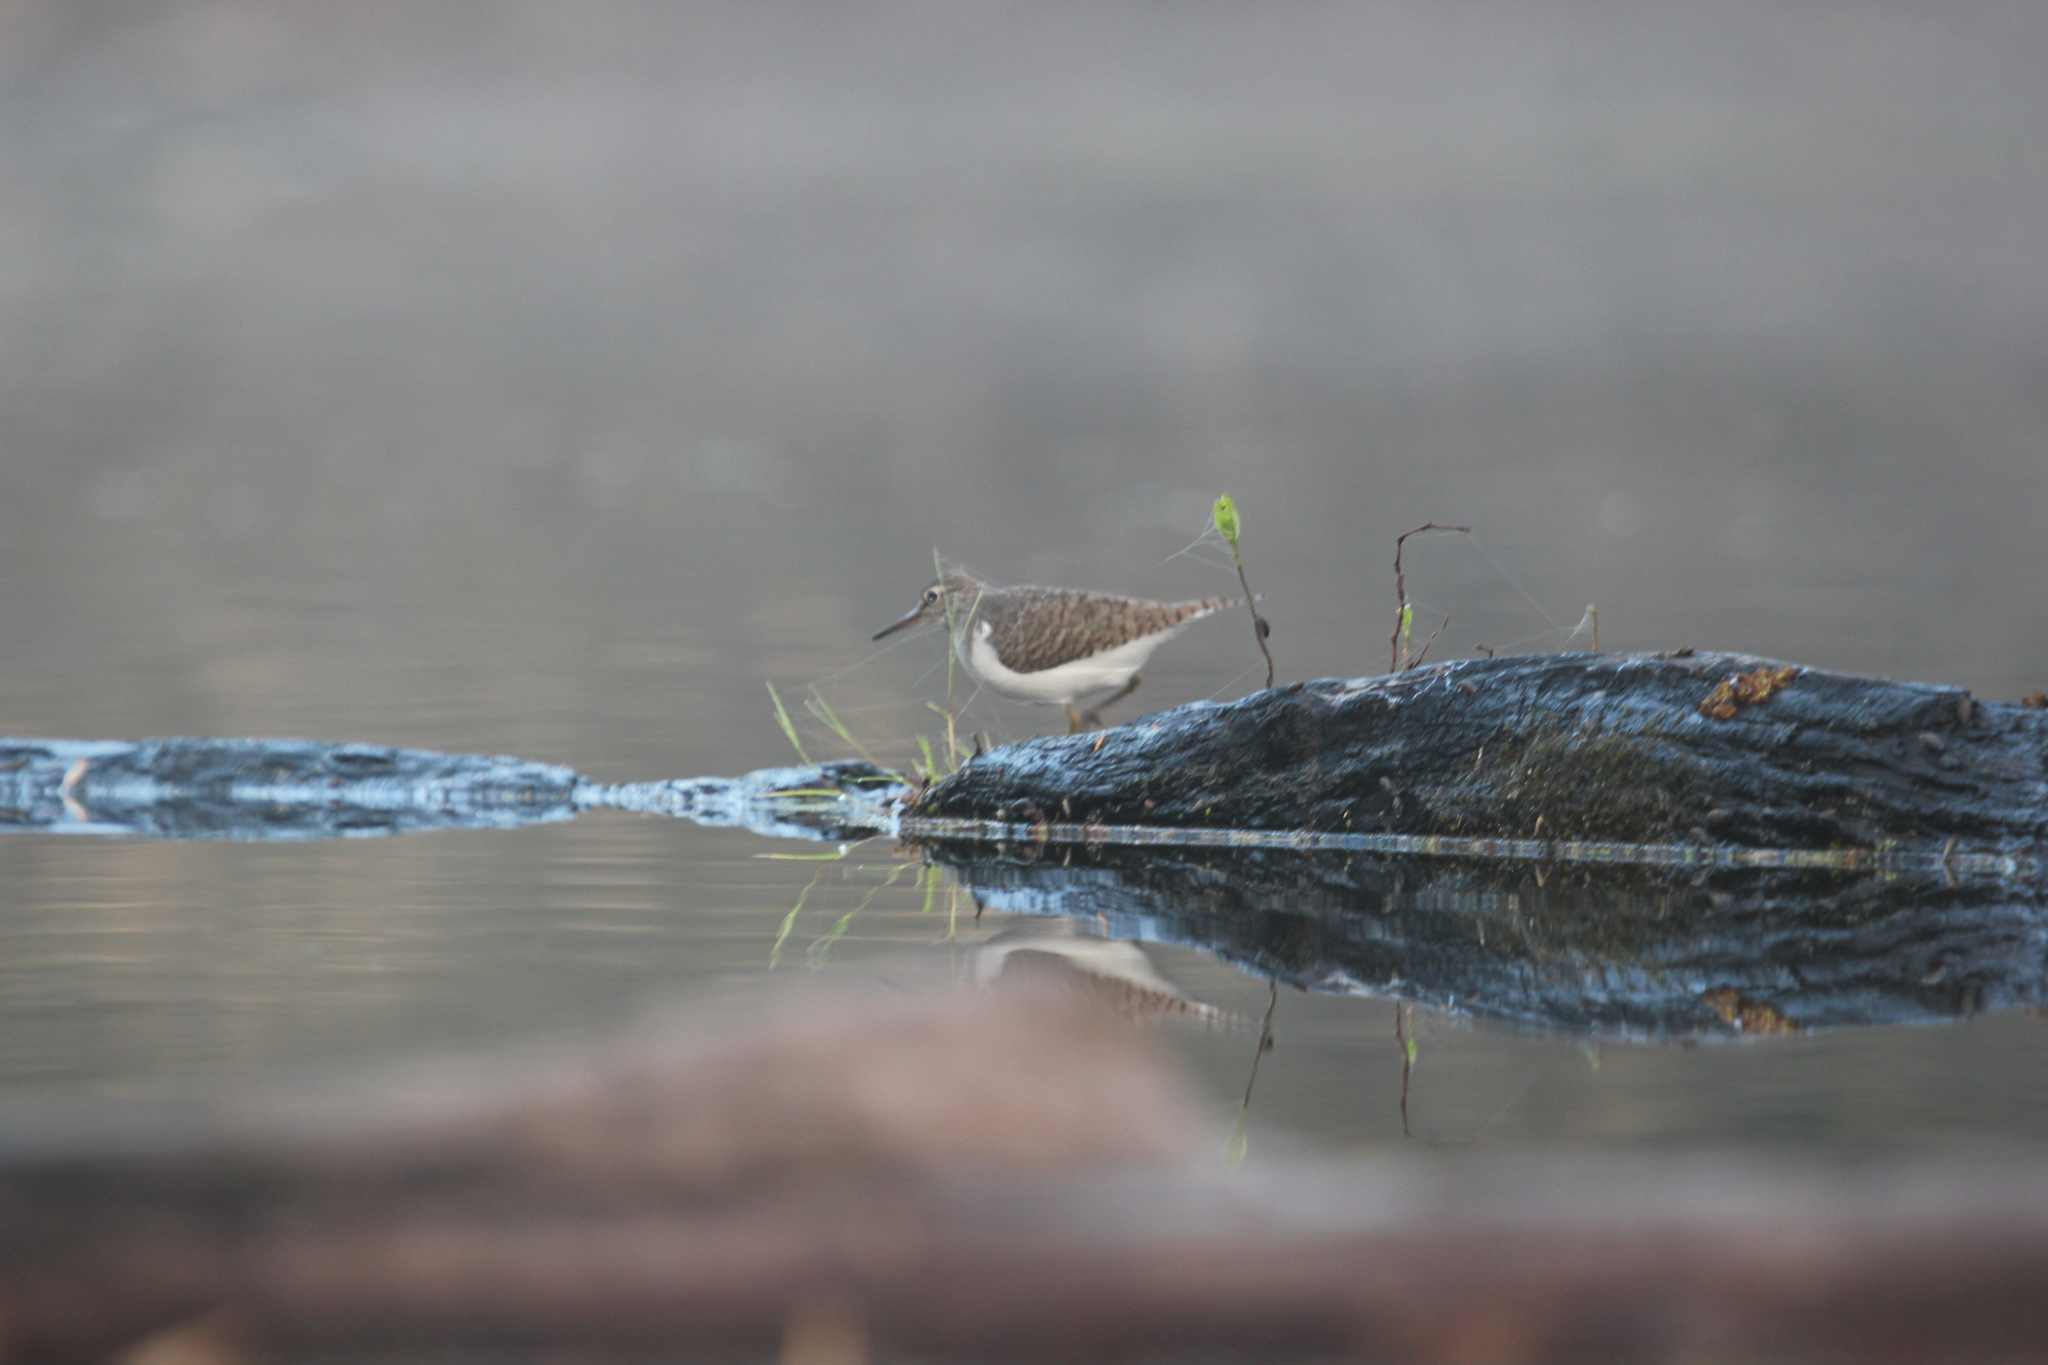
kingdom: Animalia
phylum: Chordata
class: Aves
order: Charadriiformes
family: Scolopacidae
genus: Actitis
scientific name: Actitis hypoleucos
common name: Common sandpiper
